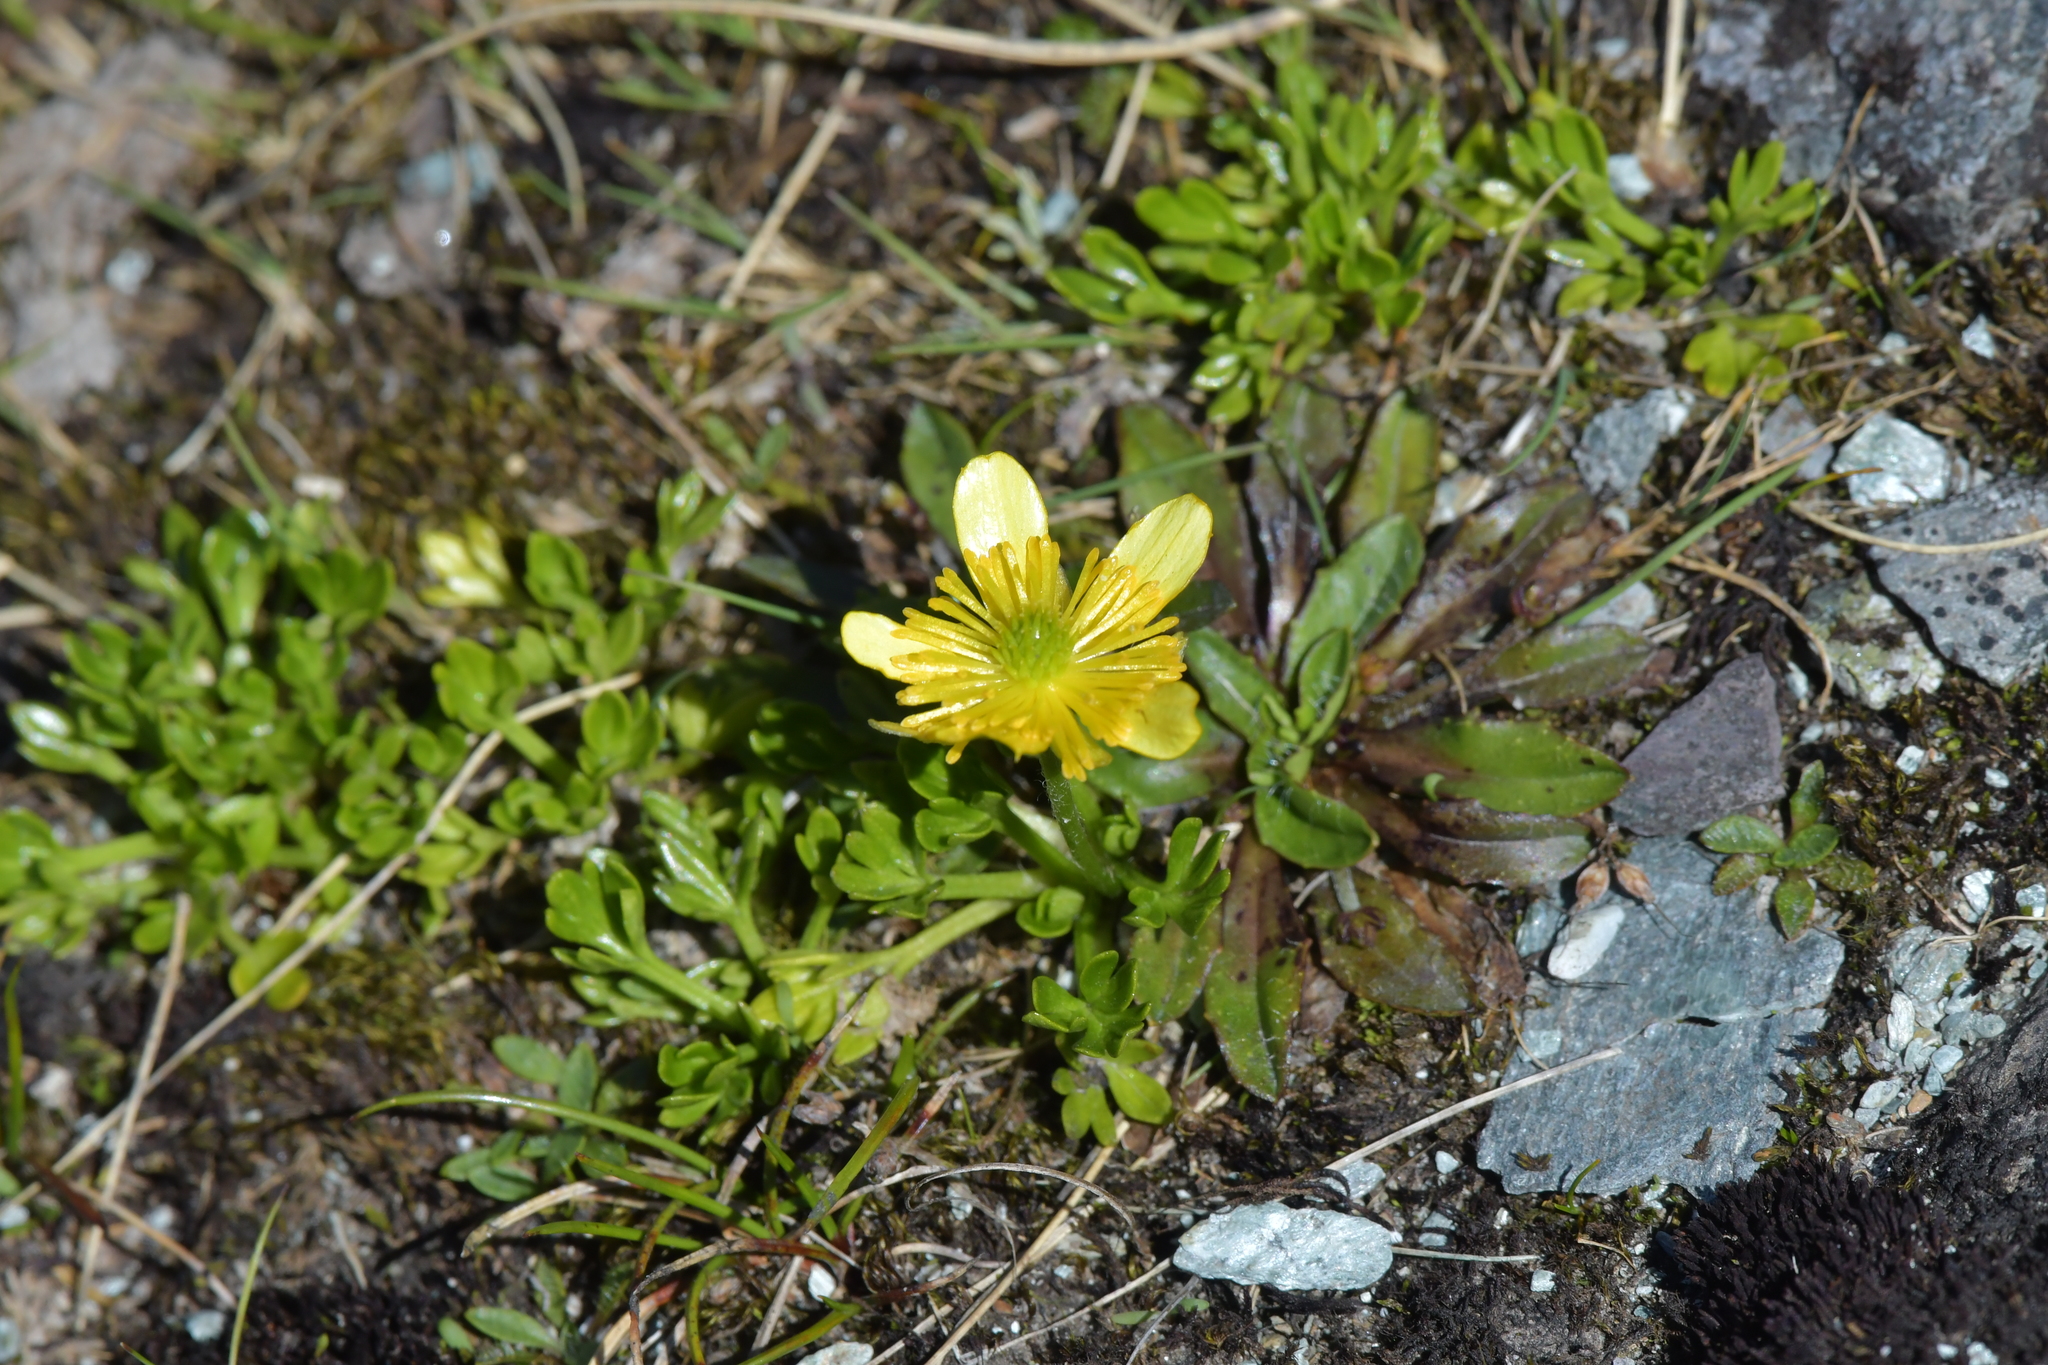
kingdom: Plantae
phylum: Tracheophyta
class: Magnoliopsida
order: Ranunculales
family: Ranunculaceae
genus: Ranunculus
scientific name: Ranunculus sericophyllus
